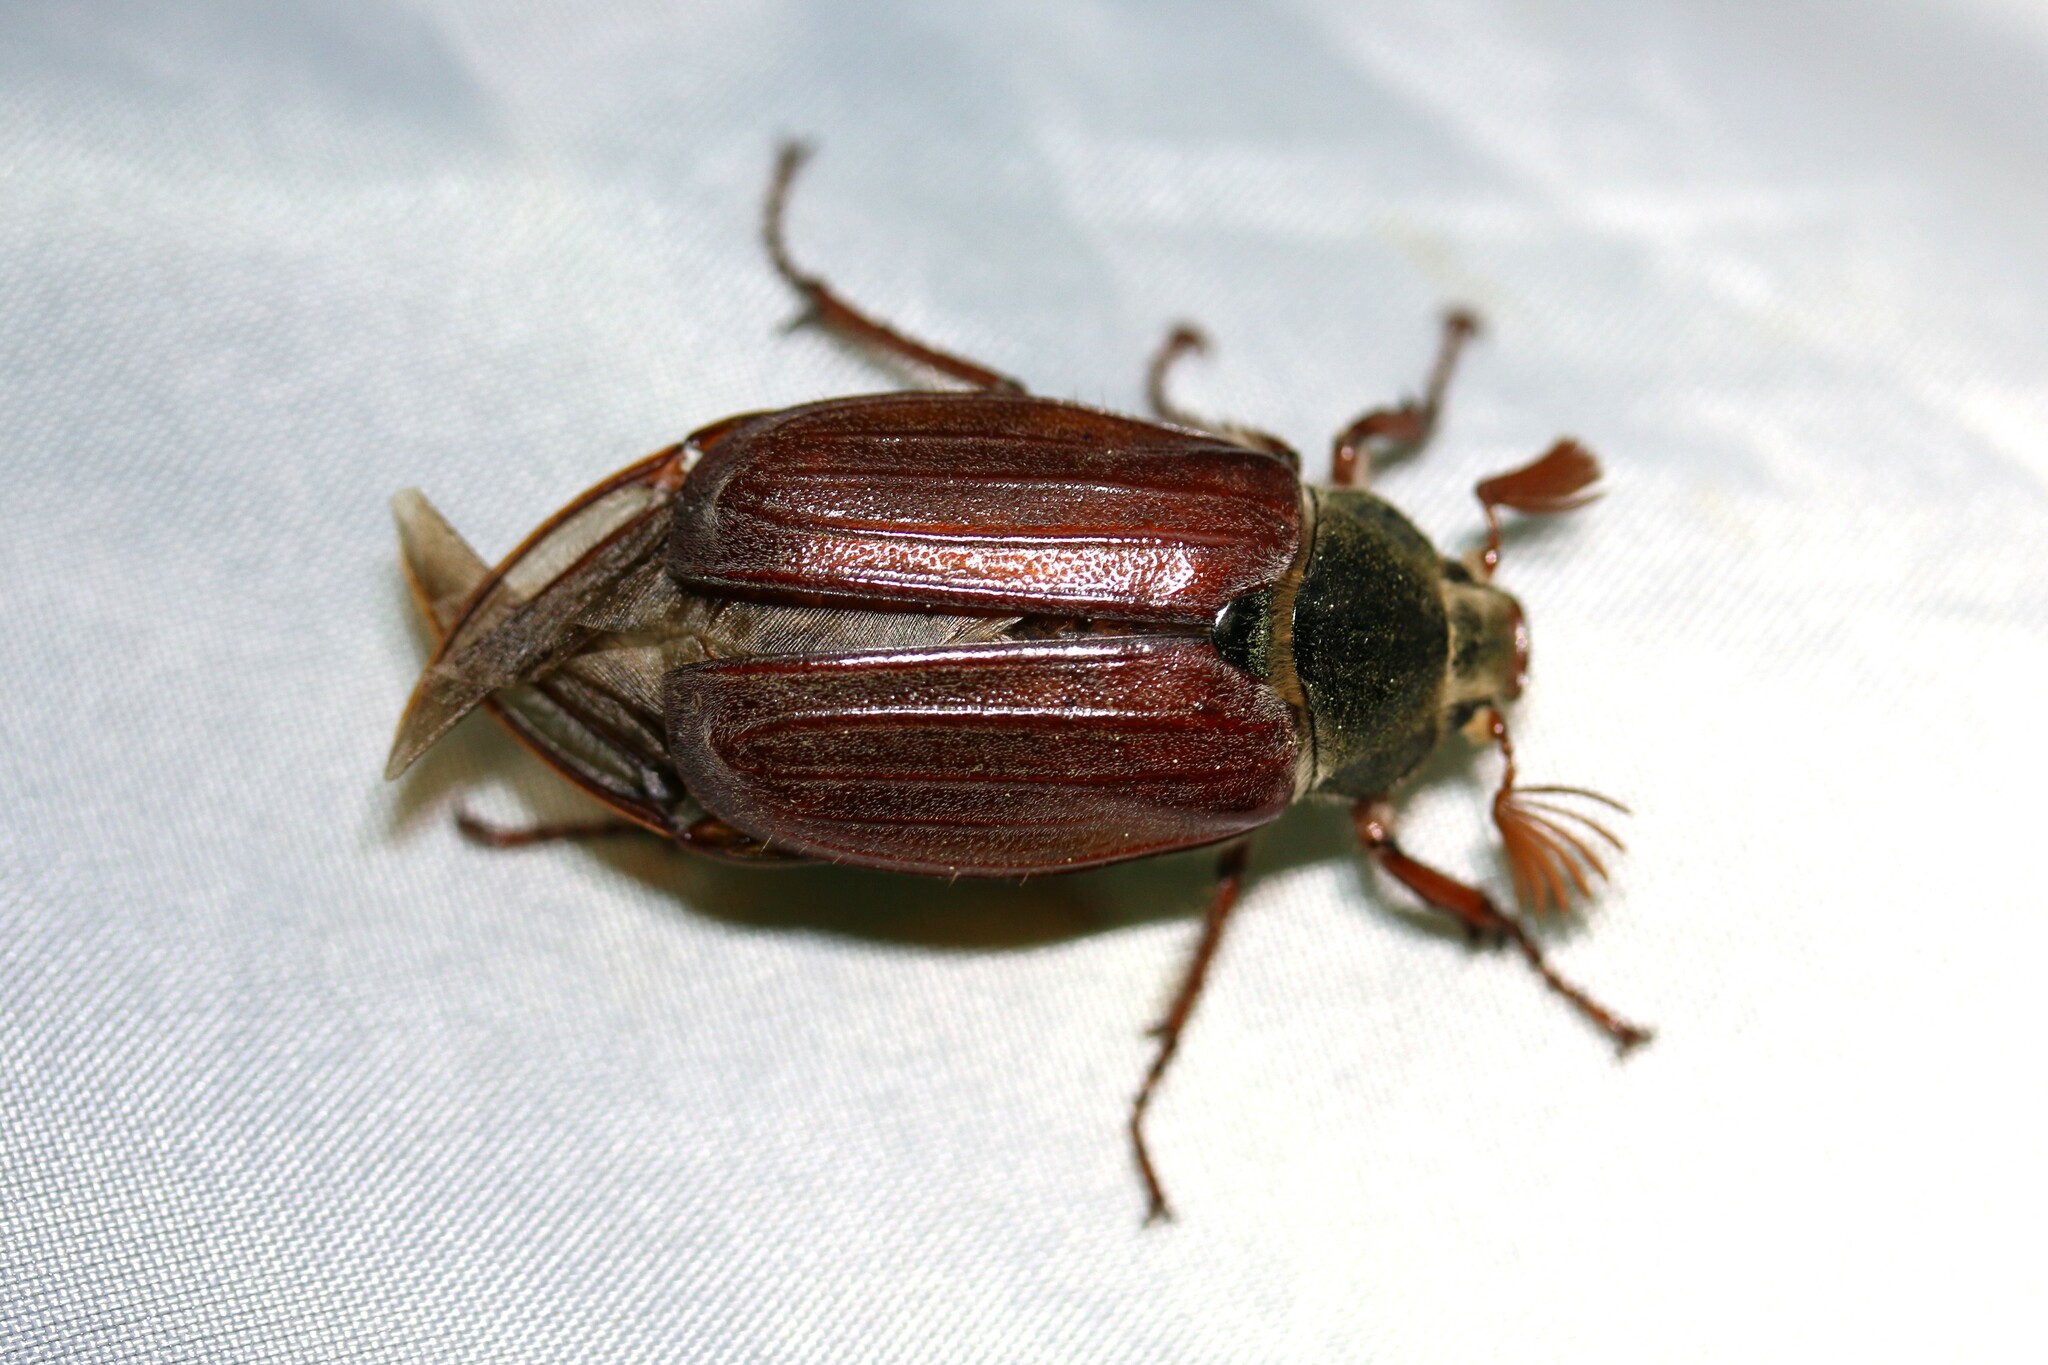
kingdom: Animalia
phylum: Arthropoda
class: Insecta
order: Coleoptera
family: Scarabaeidae
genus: Melolontha
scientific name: Melolontha melolontha
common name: Cockchafer maybeetle
